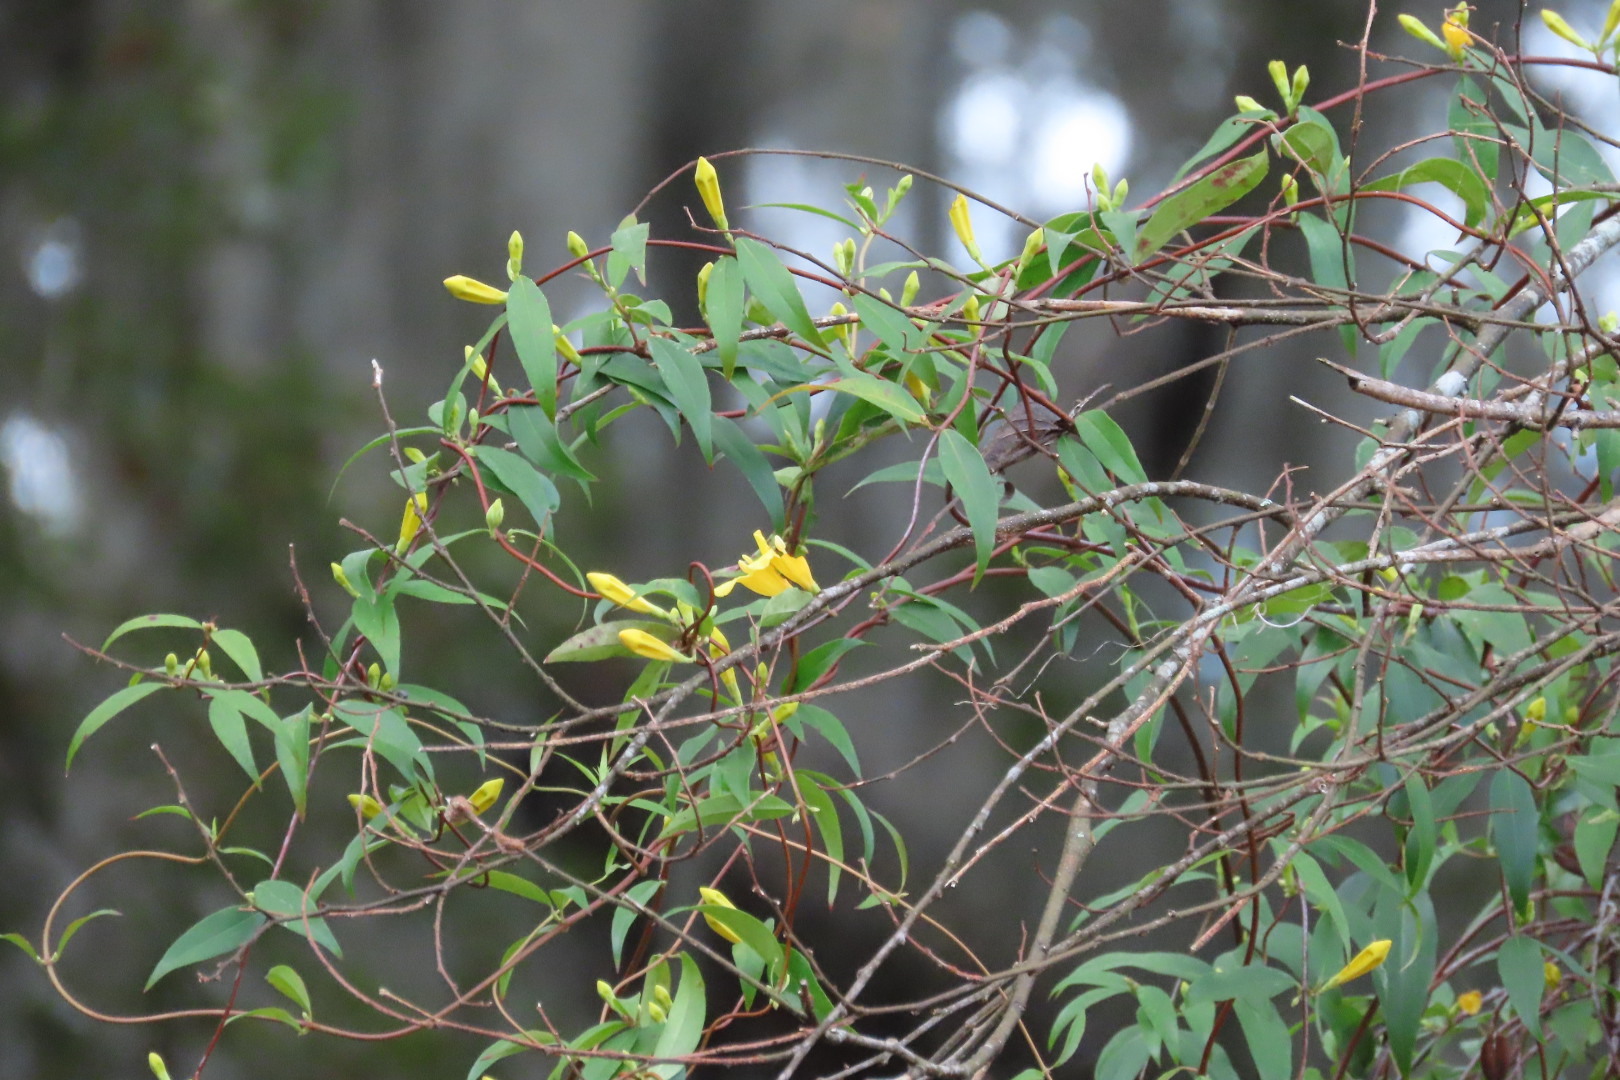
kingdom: Plantae
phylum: Tracheophyta
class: Magnoliopsida
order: Gentianales
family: Gelsemiaceae
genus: Gelsemium
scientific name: Gelsemium sempervirens
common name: Carolina-jasmine
